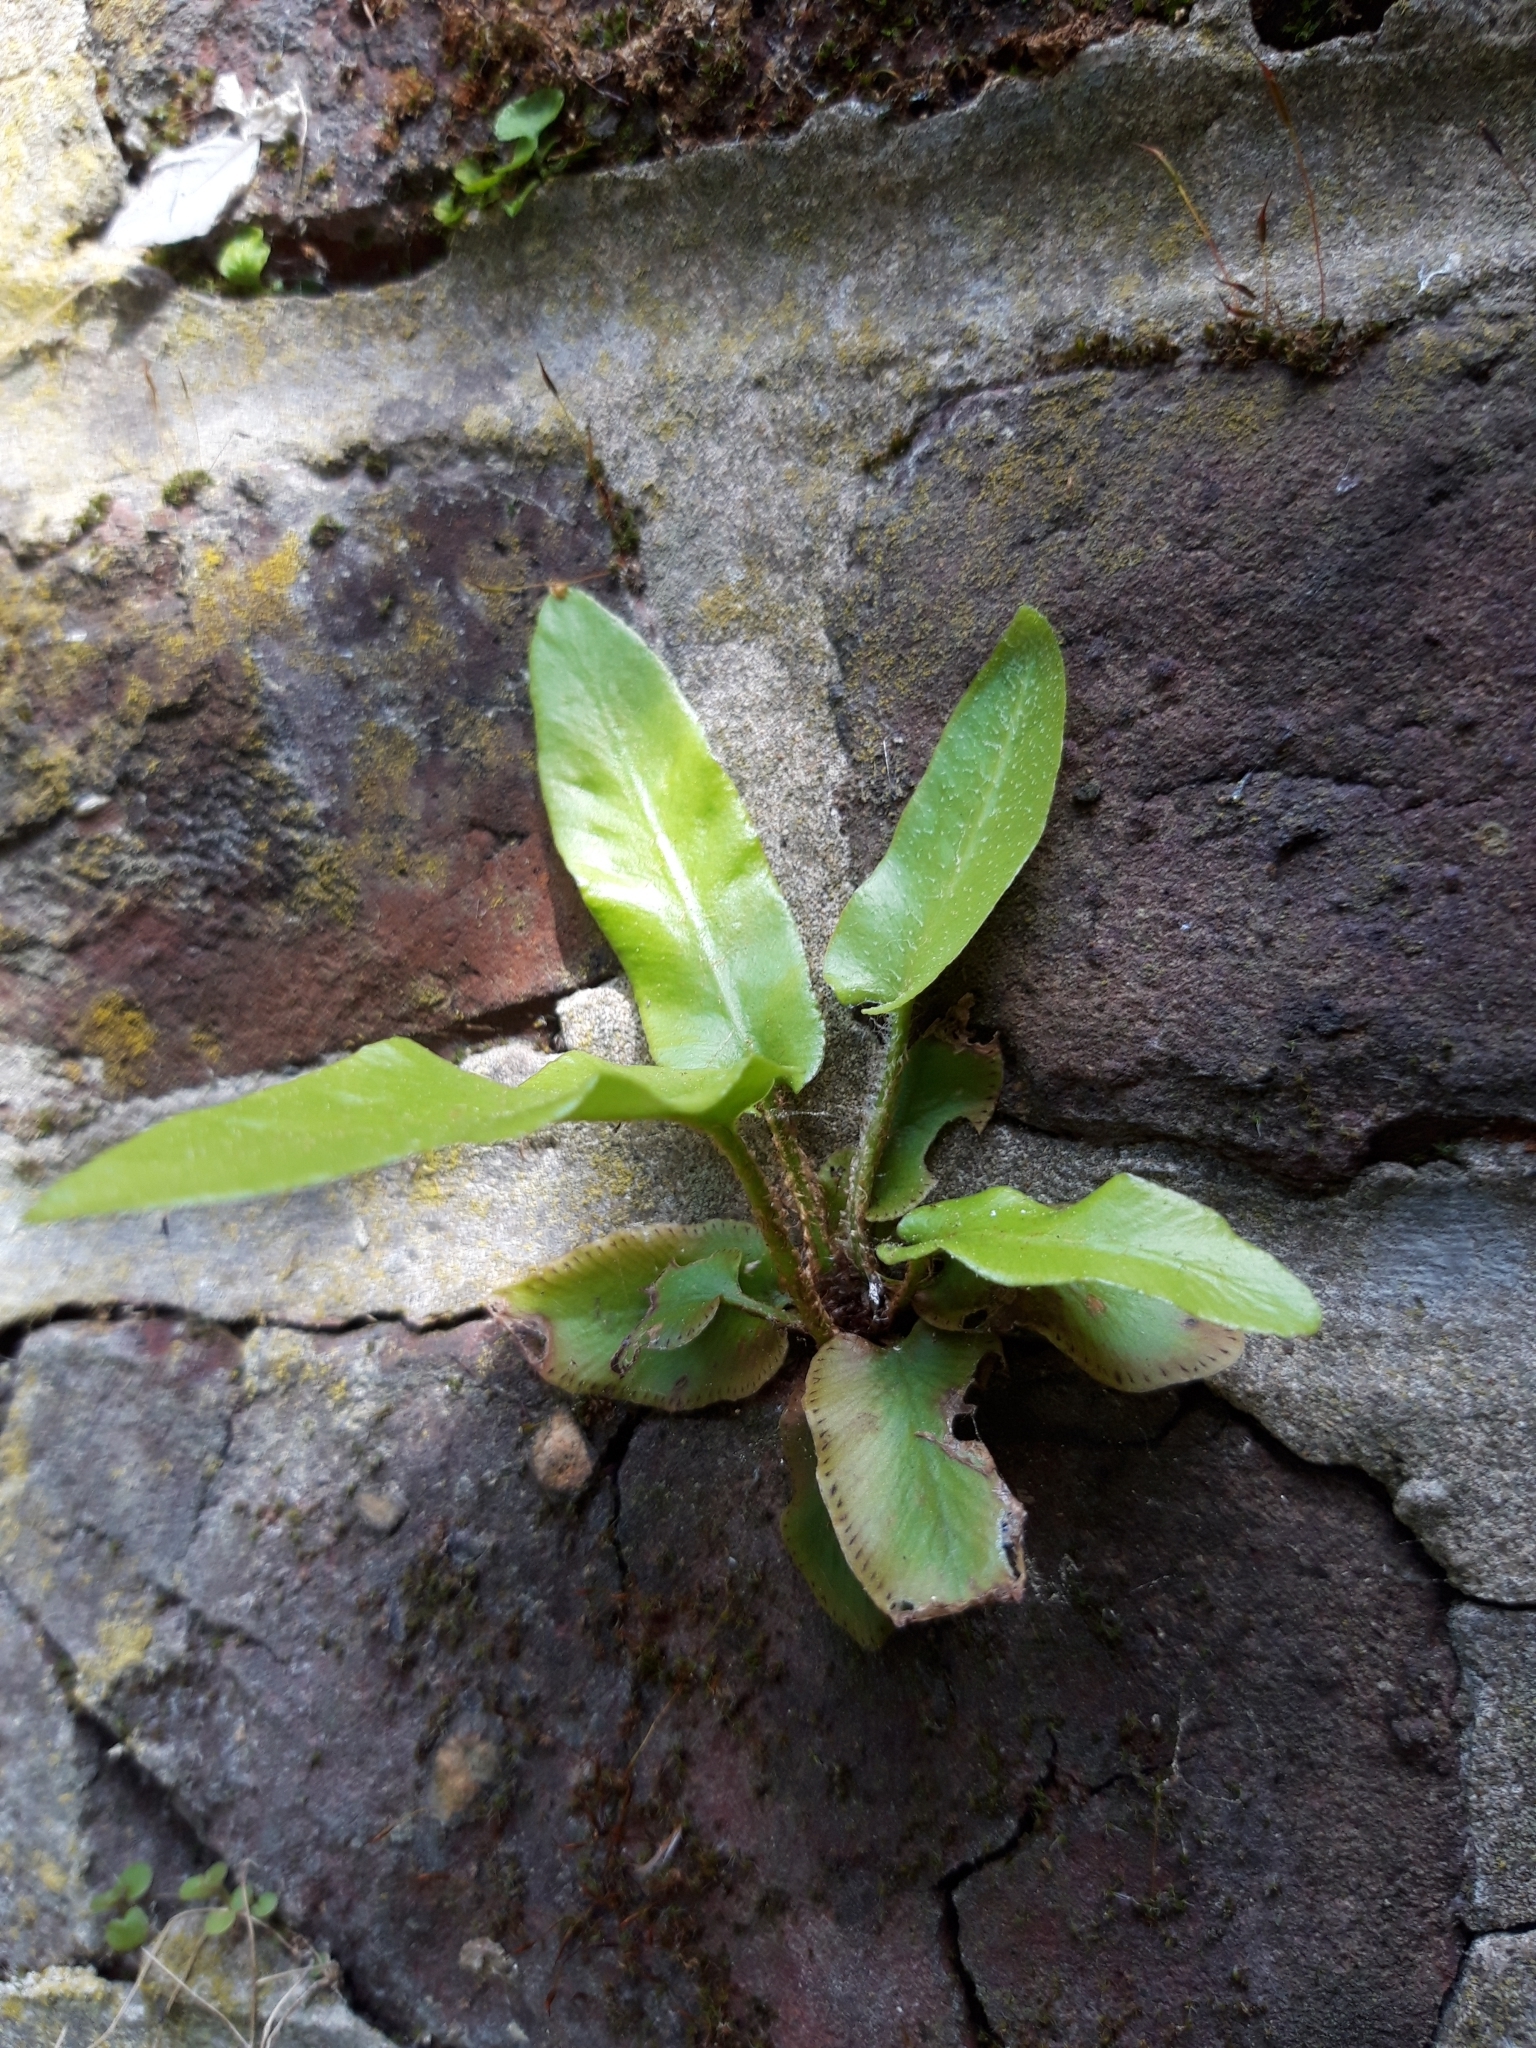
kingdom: Plantae
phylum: Tracheophyta
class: Polypodiopsida
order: Polypodiales
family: Aspleniaceae
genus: Asplenium
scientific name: Asplenium scolopendrium
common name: Hart's-tongue fern
